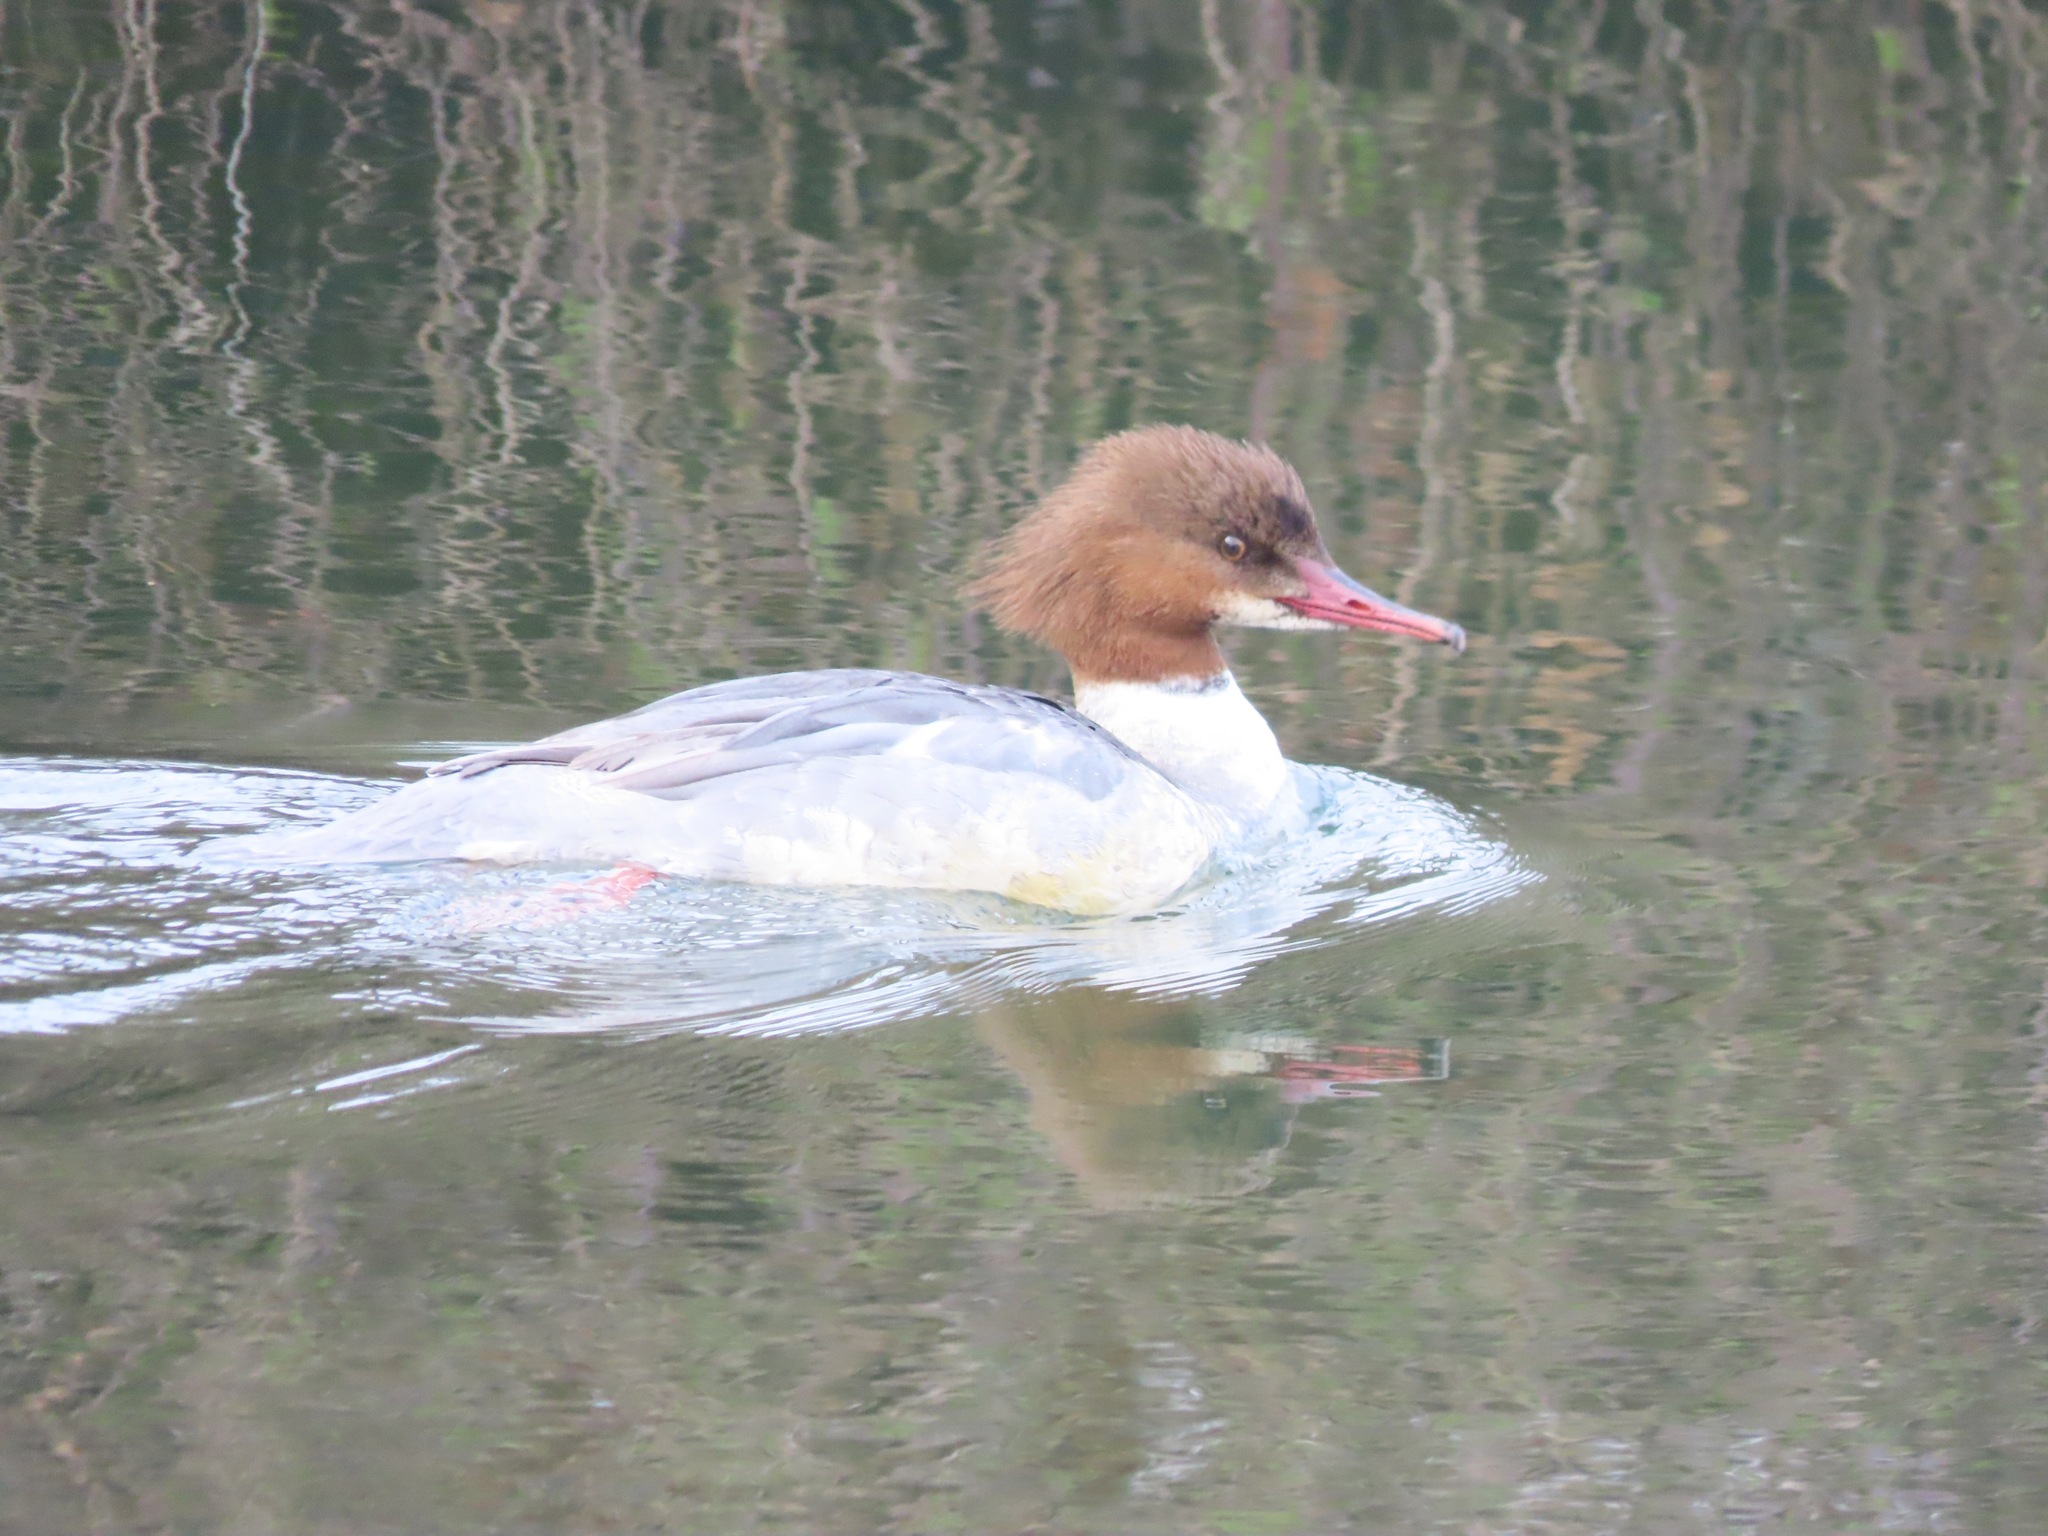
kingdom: Animalia
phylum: Chordata
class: Aves
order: Anseriformes
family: Anatidae
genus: Mergus
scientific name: Mergus merganser
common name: Common merganser
